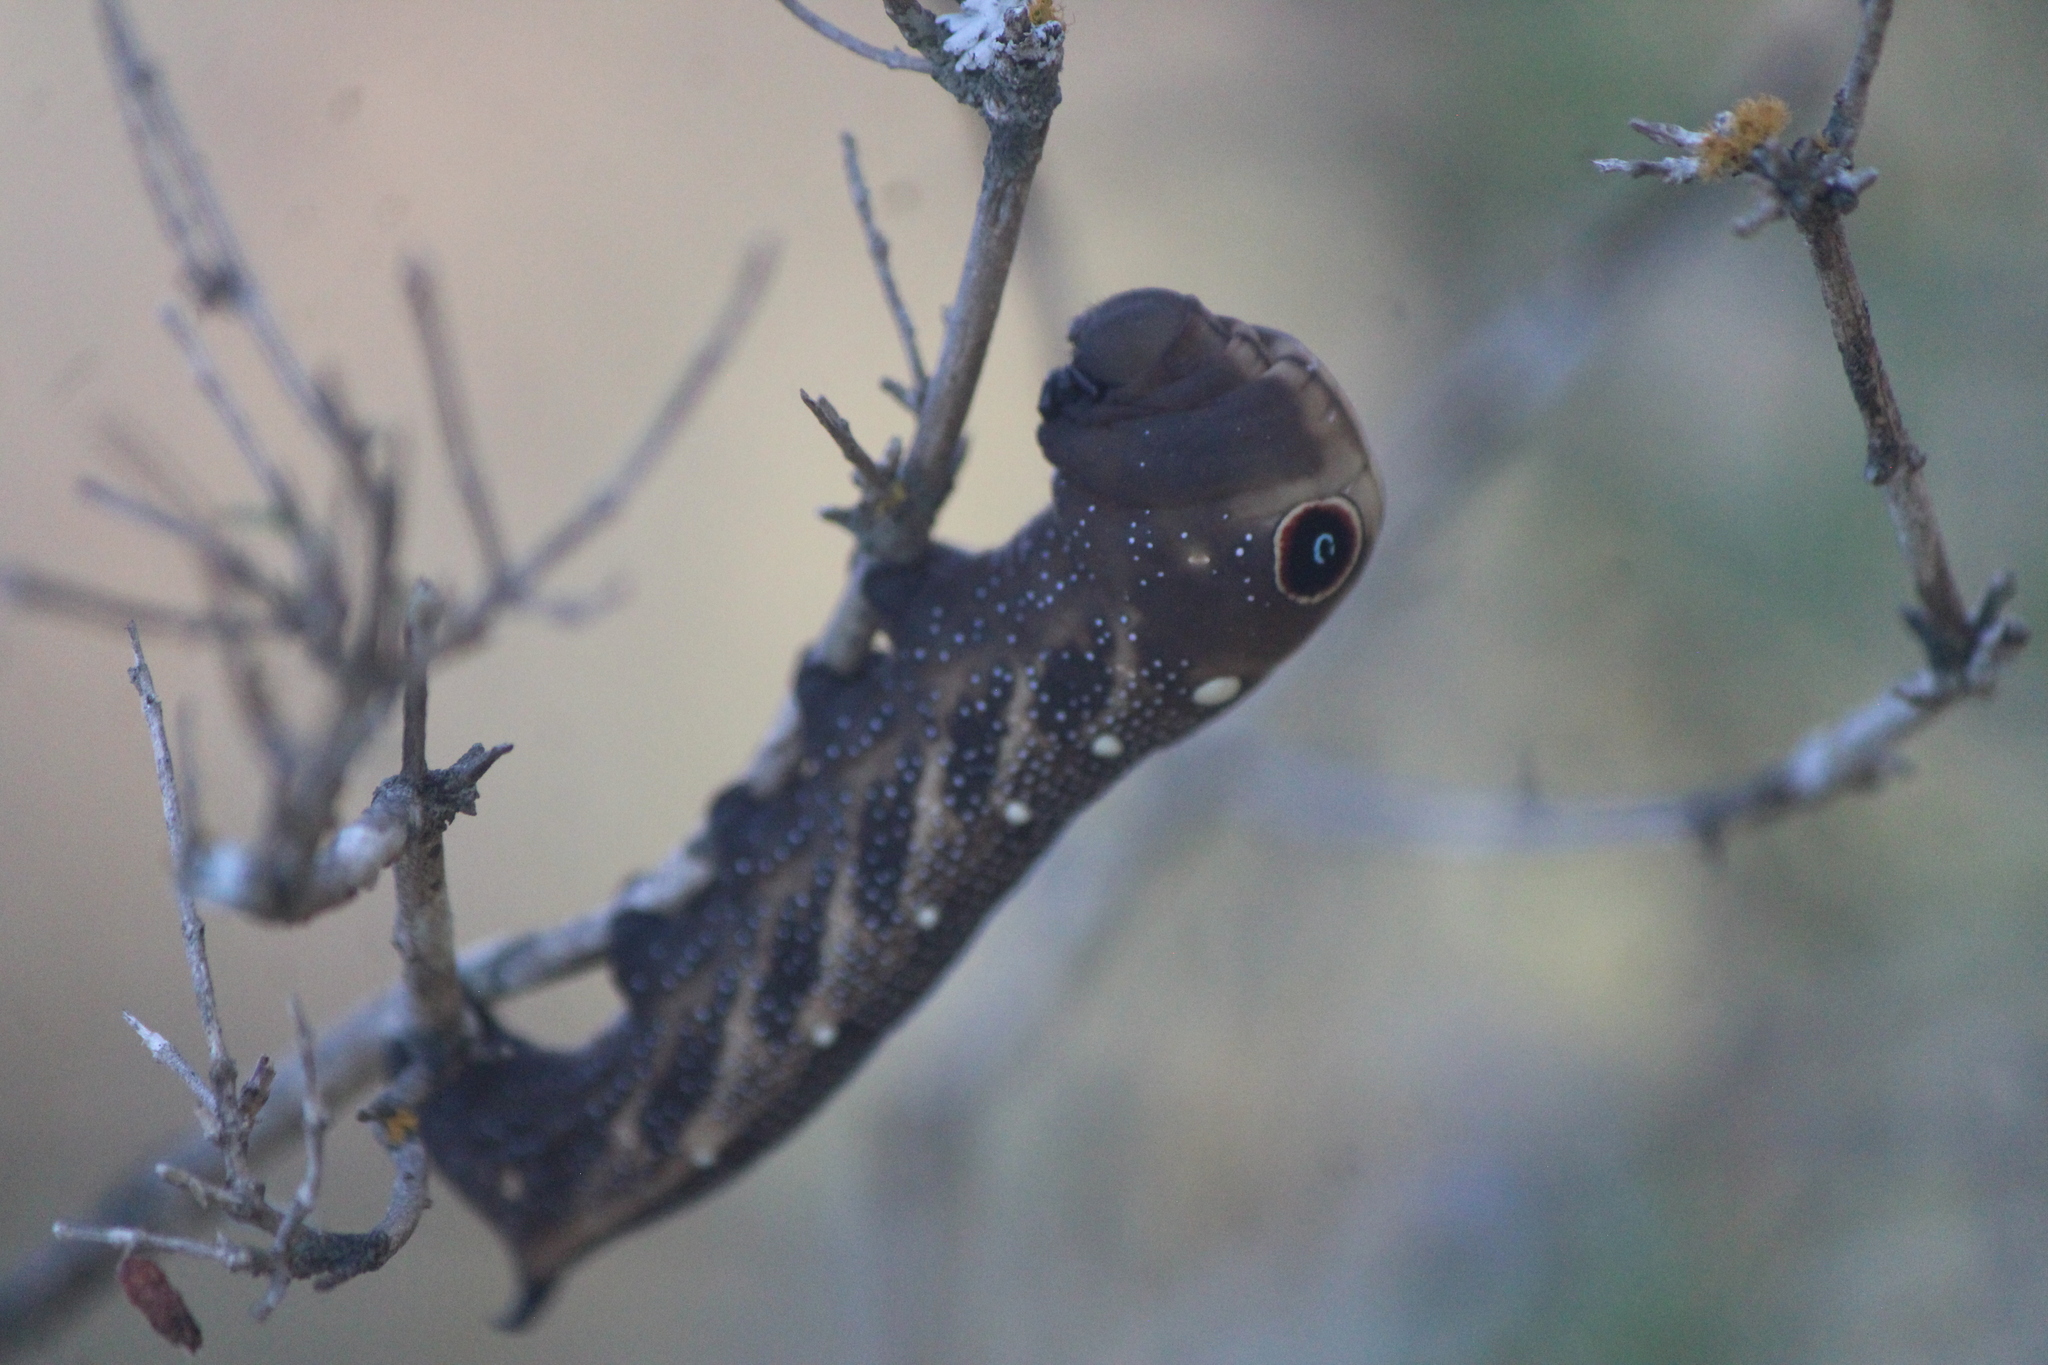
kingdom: Animalia
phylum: Arthropoda
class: Insecta
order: Lepidoptera
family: Sphingidae
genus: Xylophanes
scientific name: Xylophanes falco
